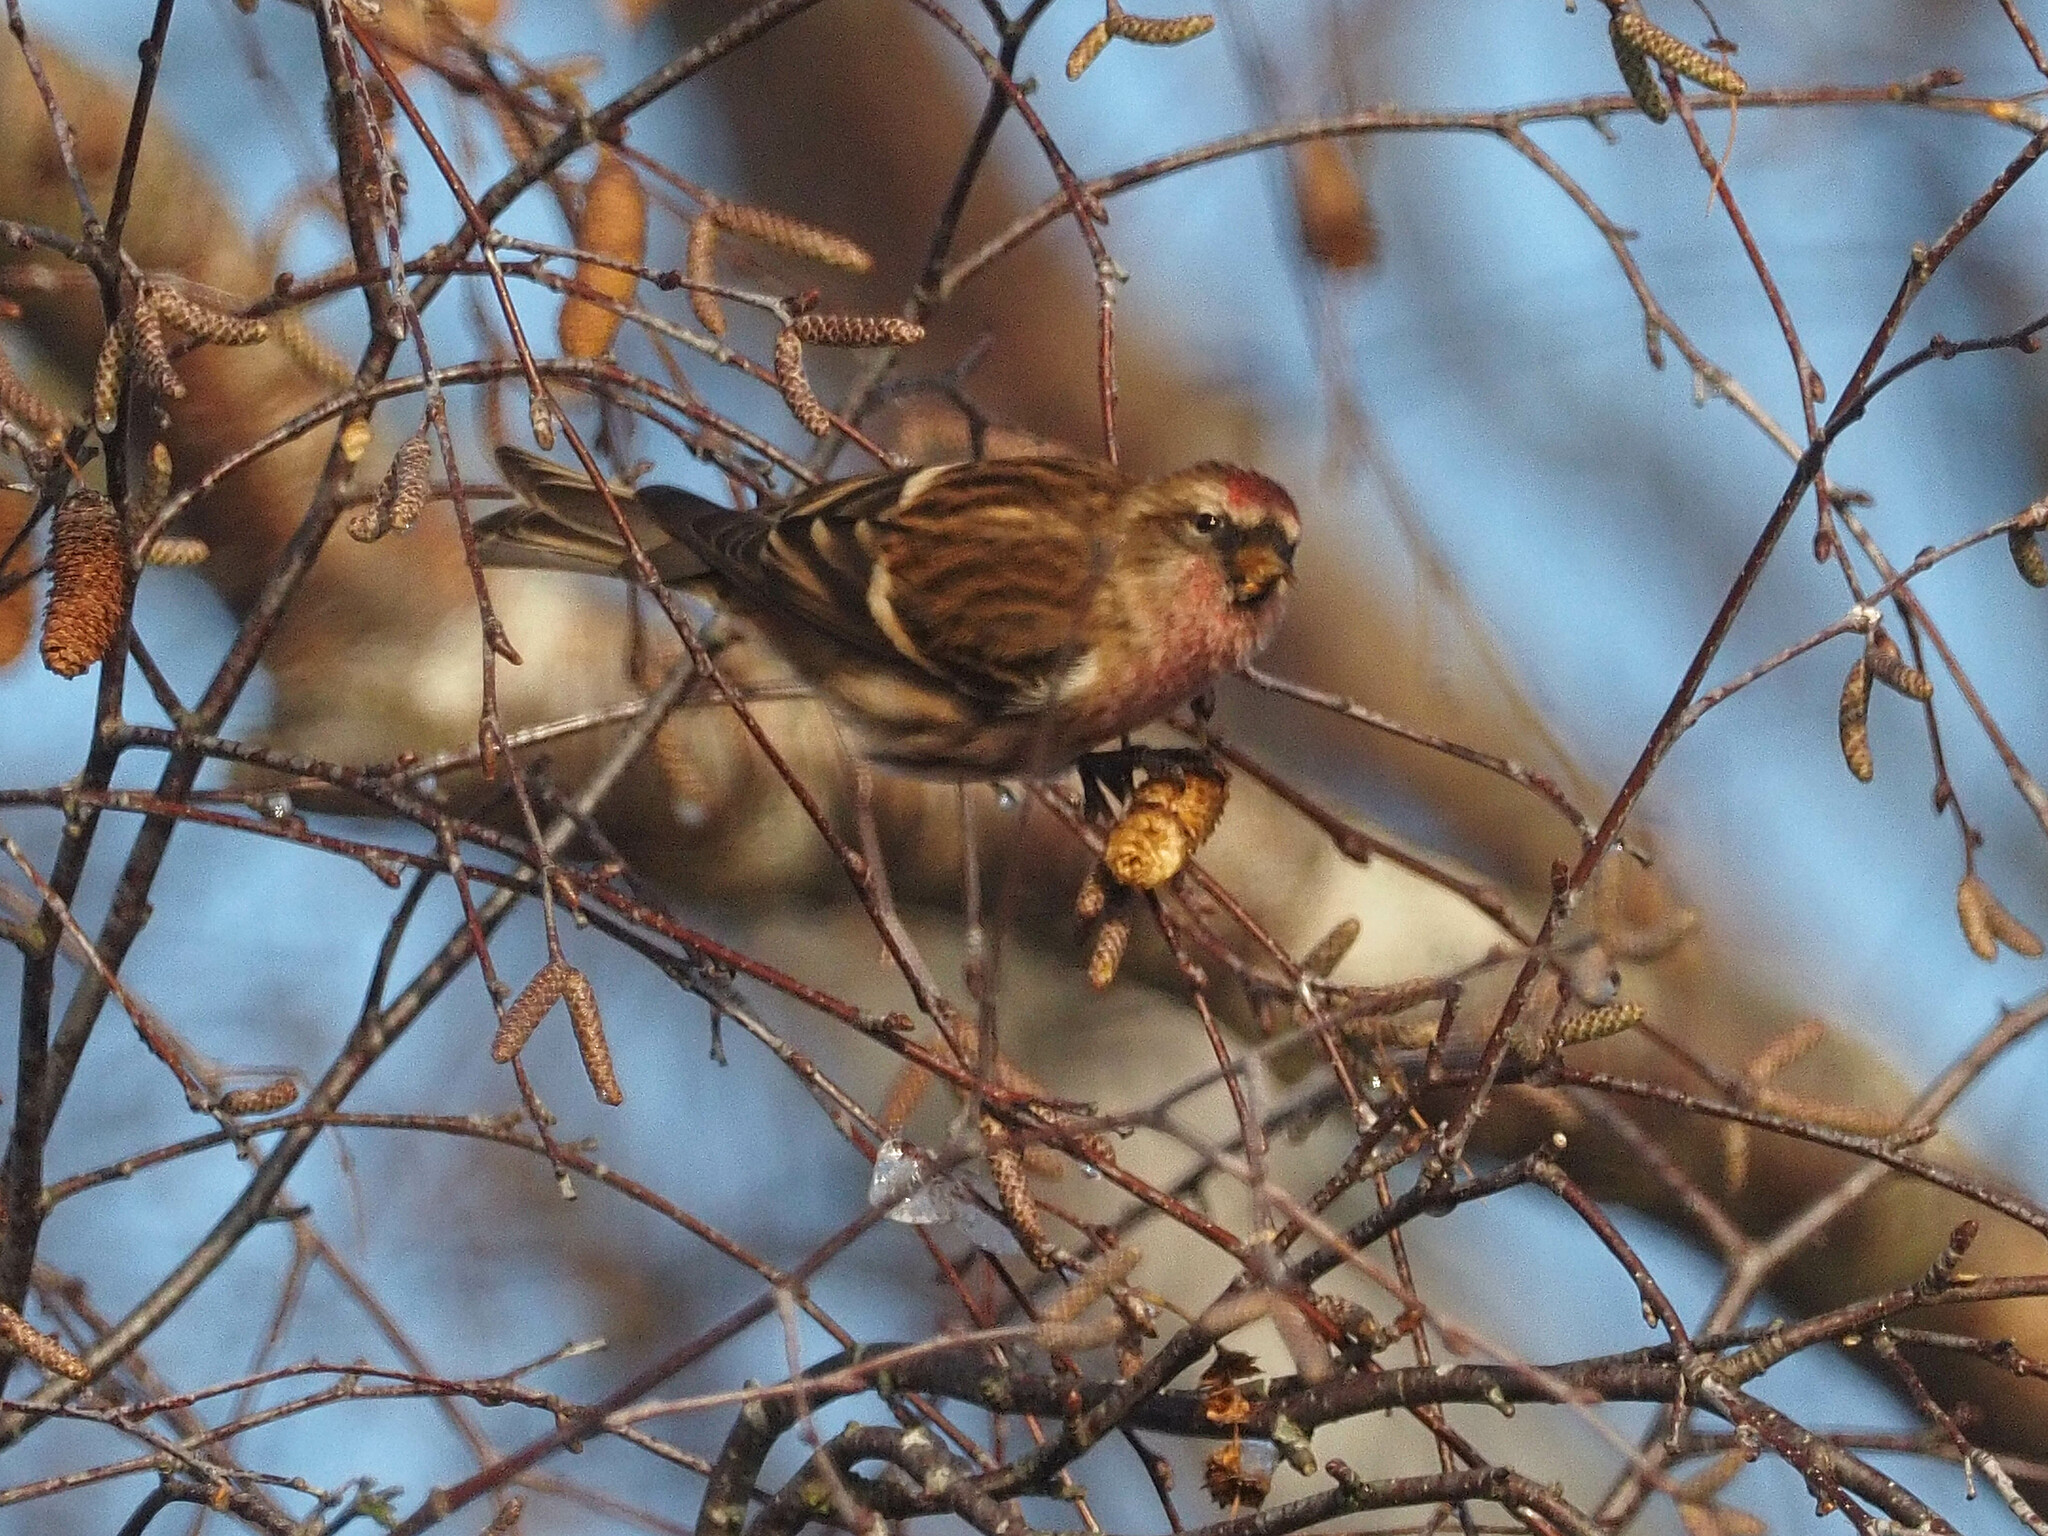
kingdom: Animalia
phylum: Chordata
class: Aves
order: Passeriformes
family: Fringillidae
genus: Acanthis
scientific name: Acanthis flammea
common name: Common redpoll
